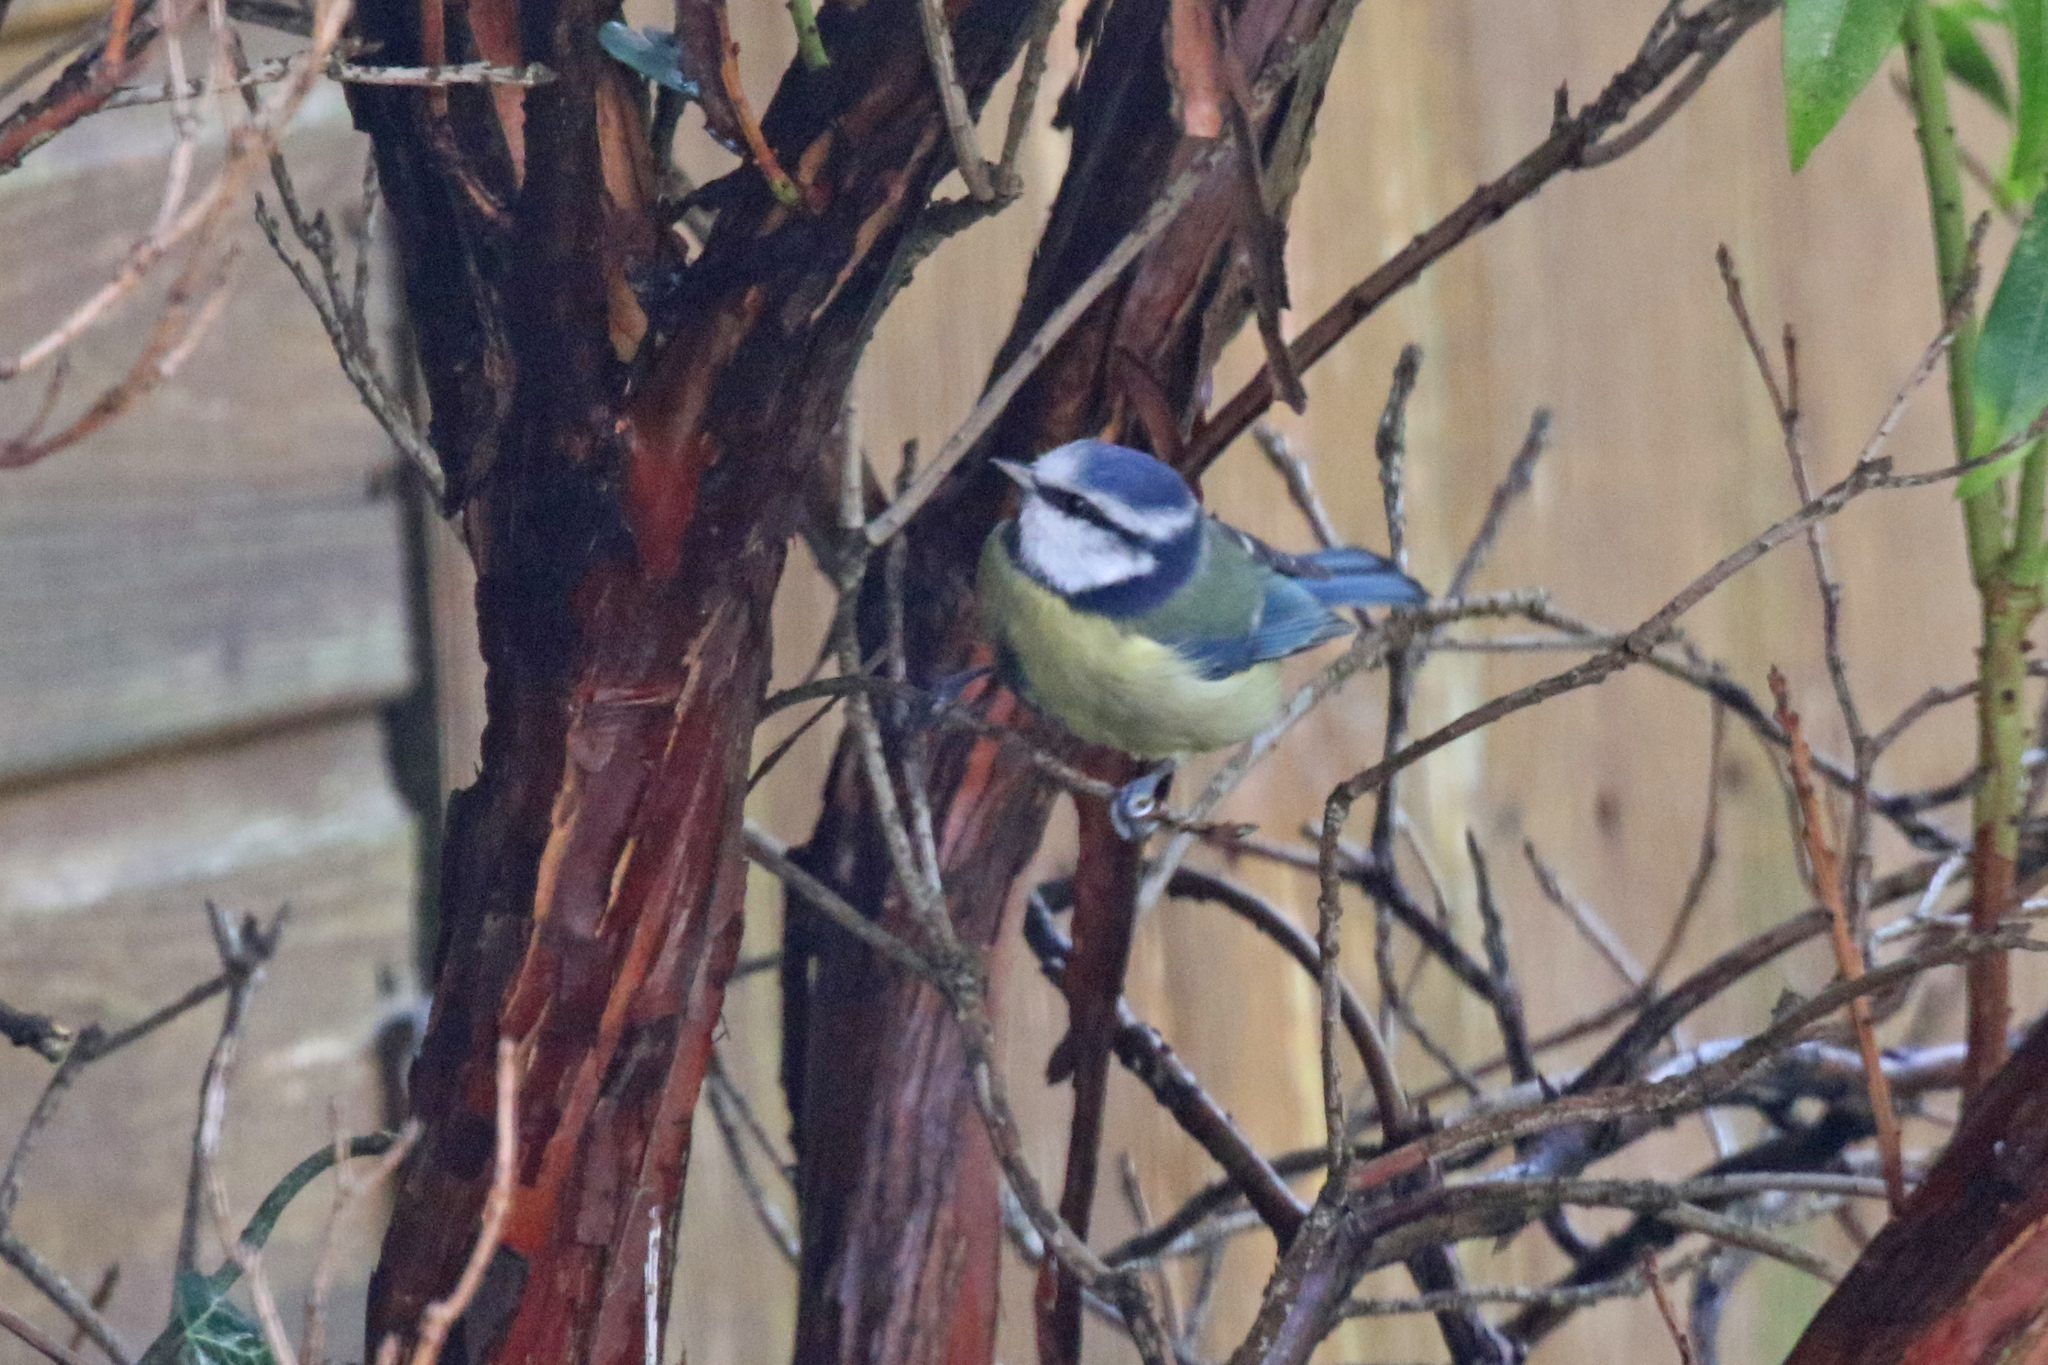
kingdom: Animalia
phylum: Chordata
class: Aves
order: Passeriformes
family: Paridae
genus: Cyanistes
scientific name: Cyanistes caeruleus
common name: Eurasian blue tit
